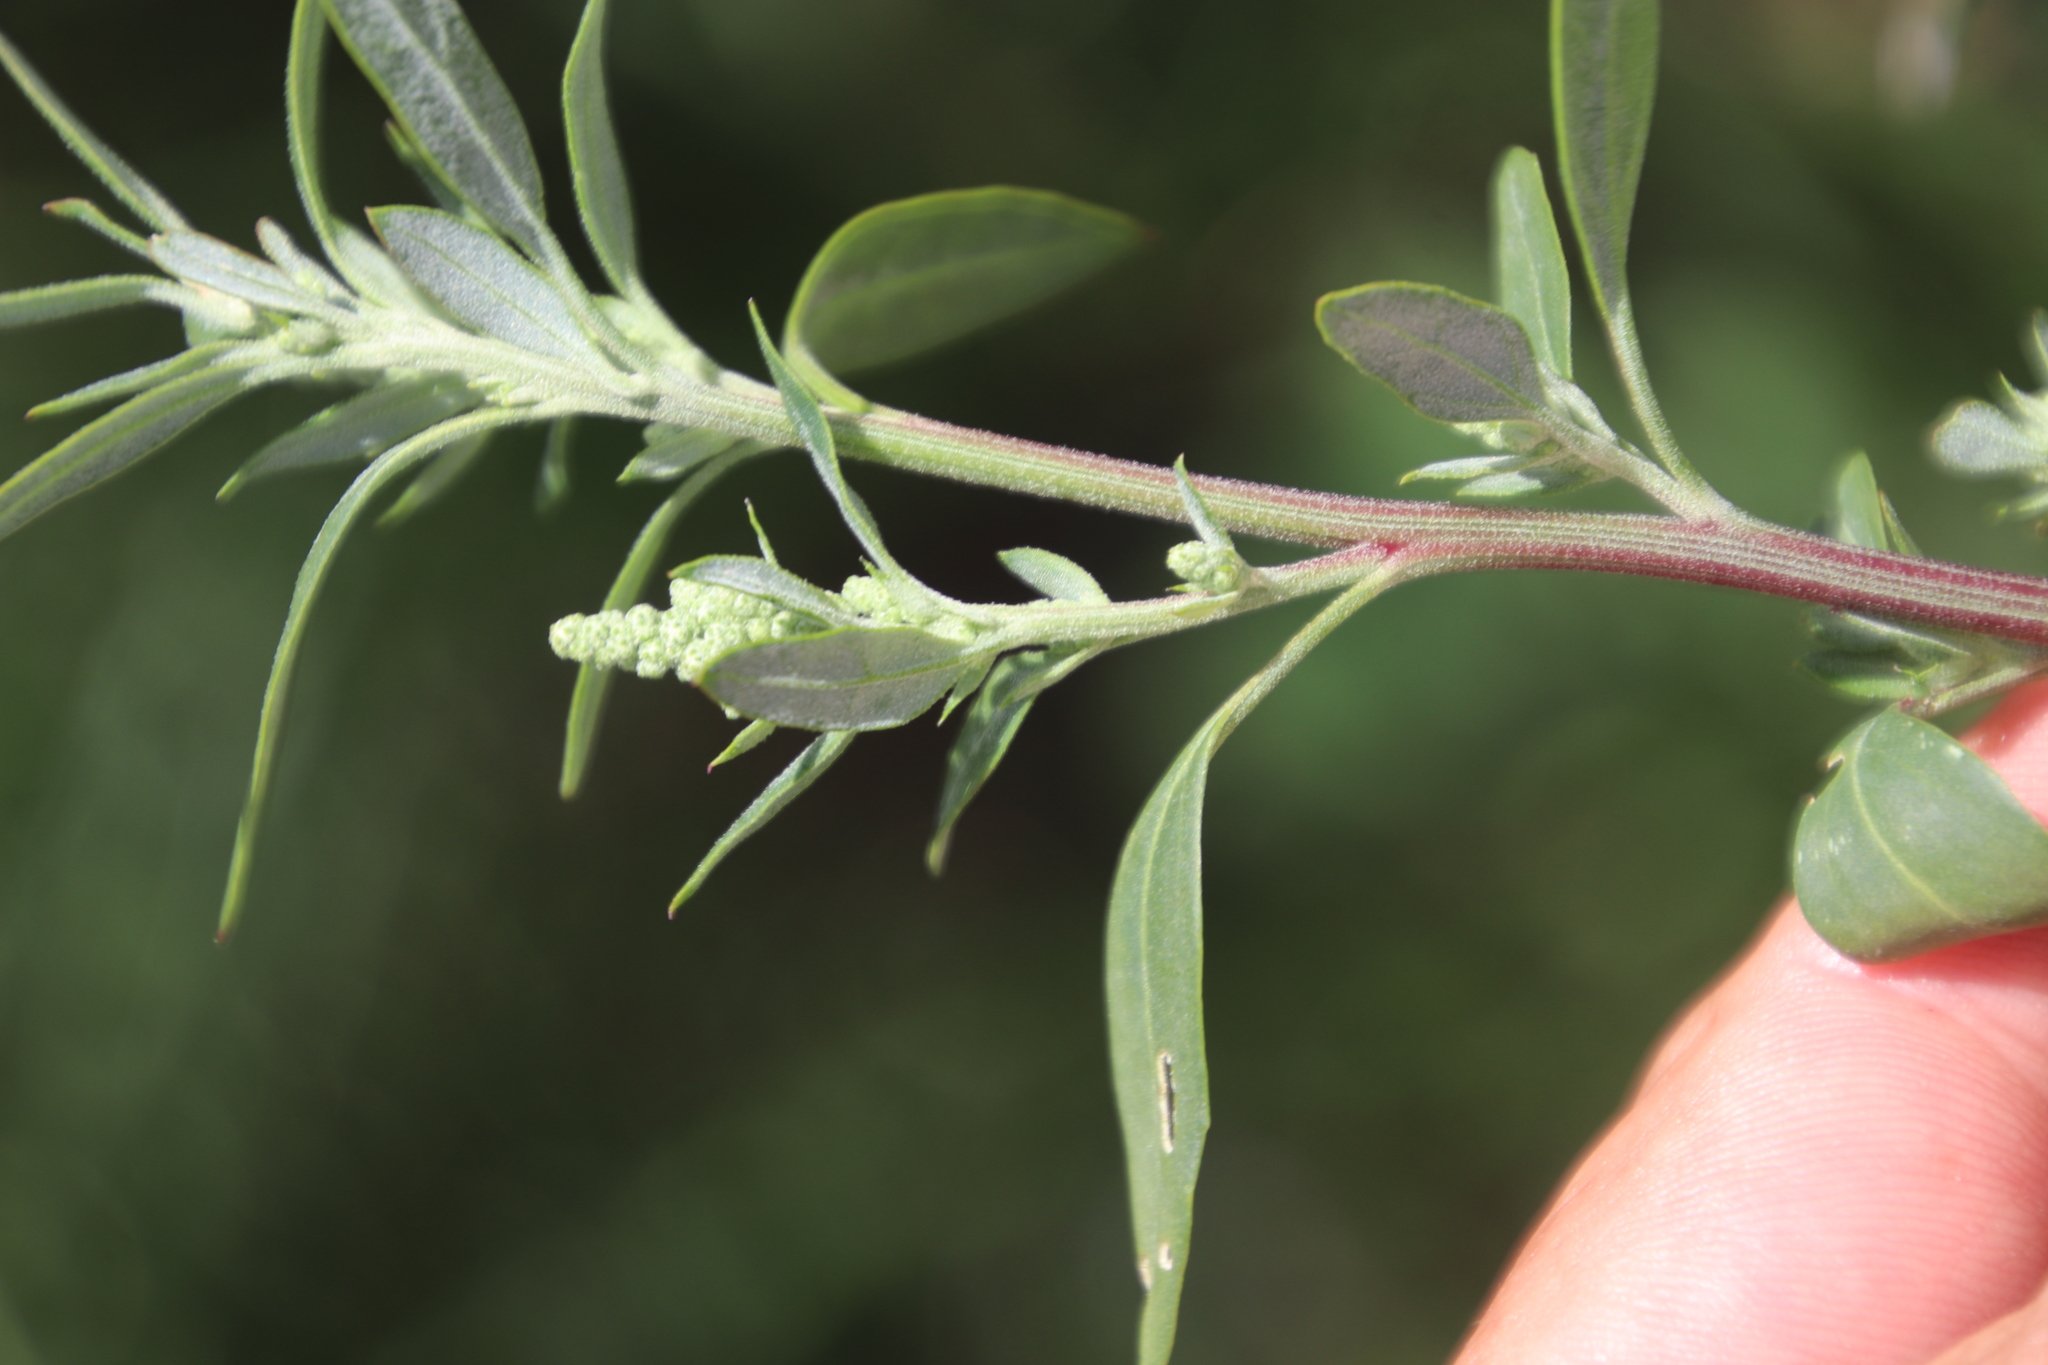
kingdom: Plantae
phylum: Tracheophyta
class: Magnoliopsida
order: Caryophyllales
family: Amaranthaceae
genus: Chenopodium
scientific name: Chenopodium album
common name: Fat-hen
